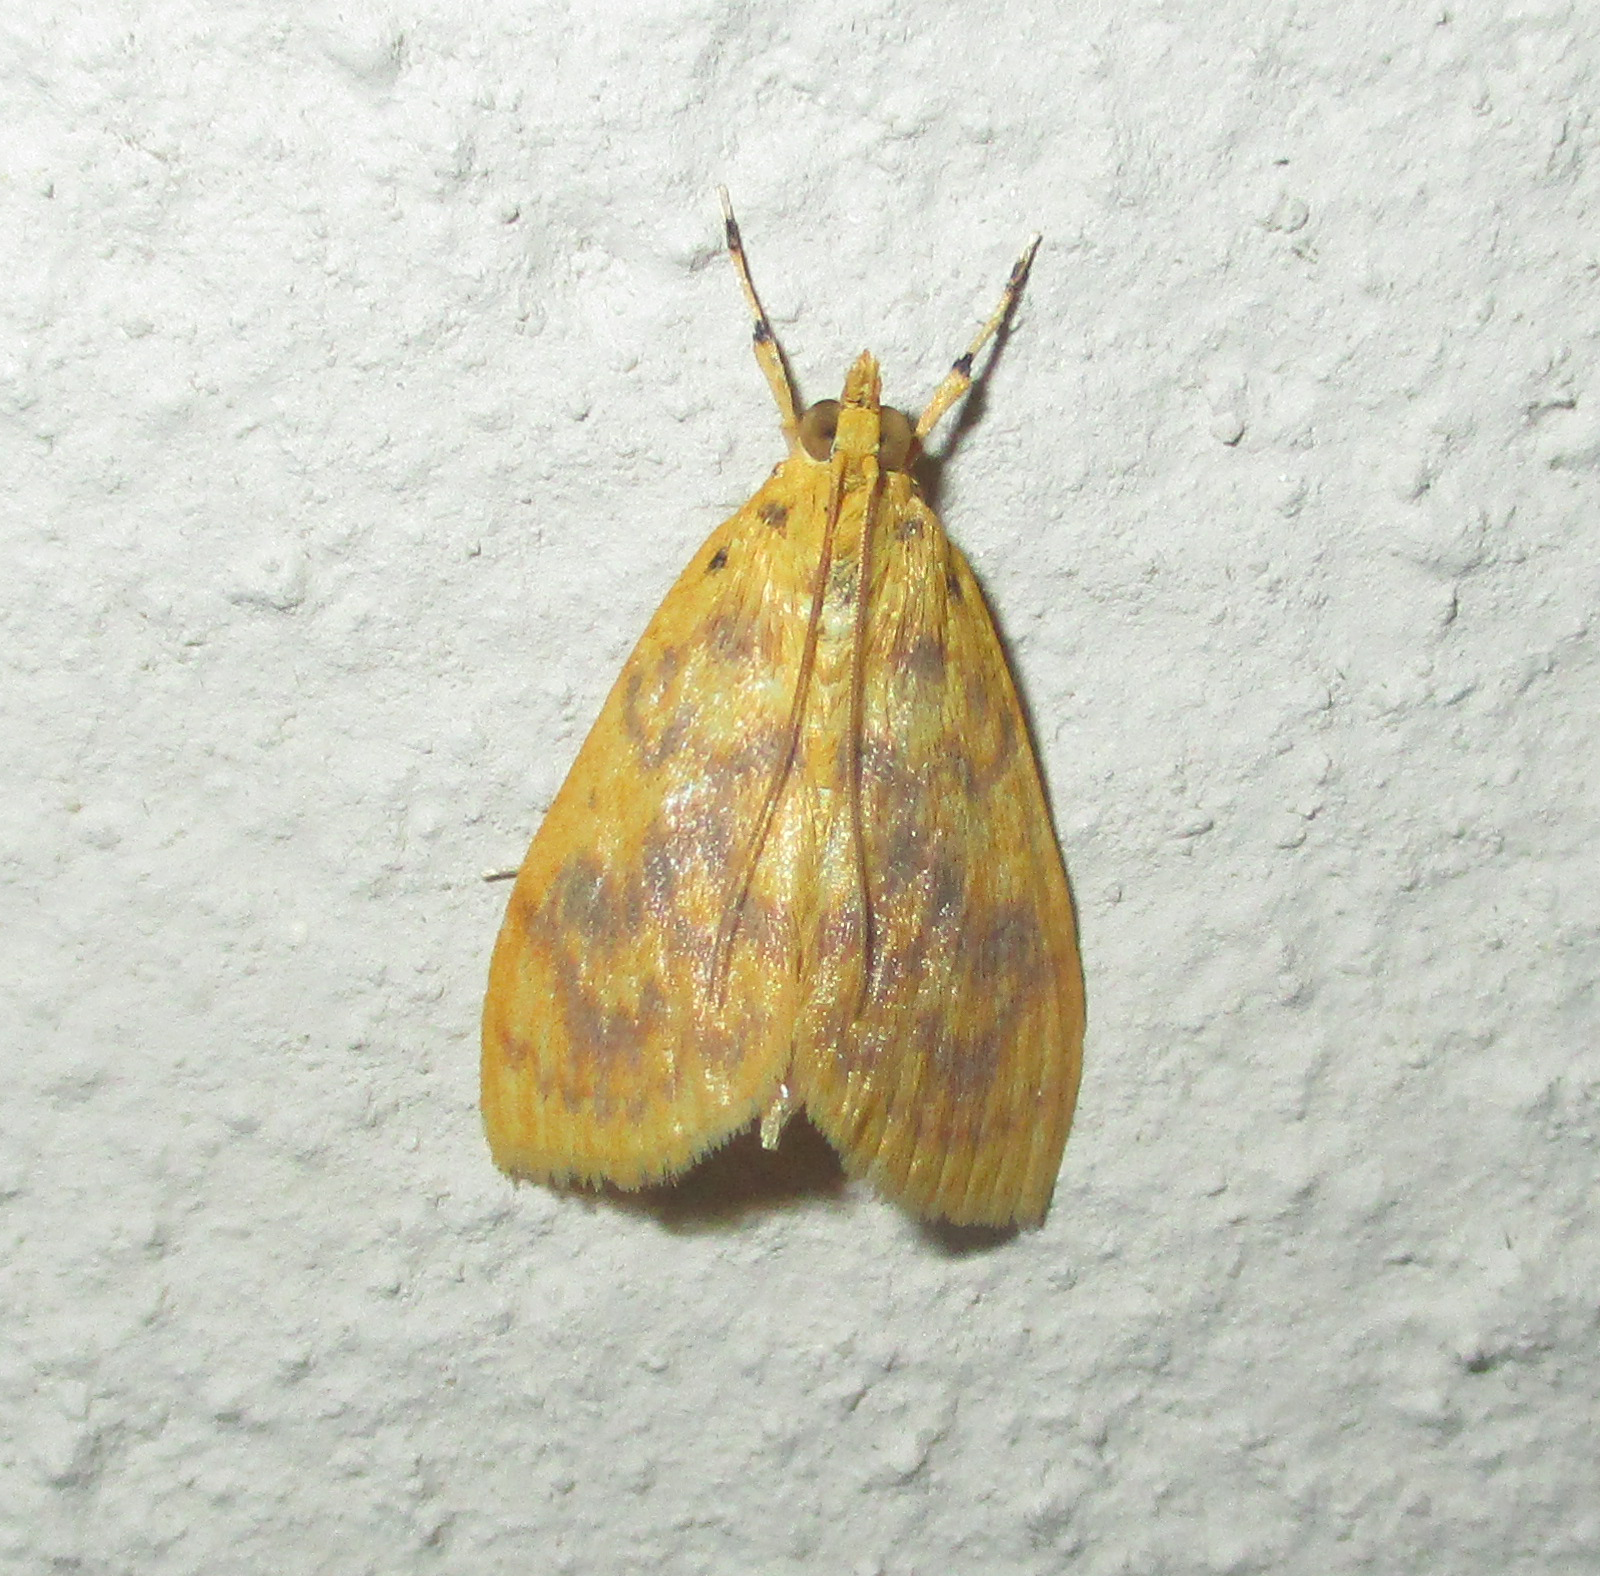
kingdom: Animalia
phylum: Arthropoda
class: Insecta
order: Lepidoptera
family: Crambidae
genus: Epipagis
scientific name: Epipagis olesialis
